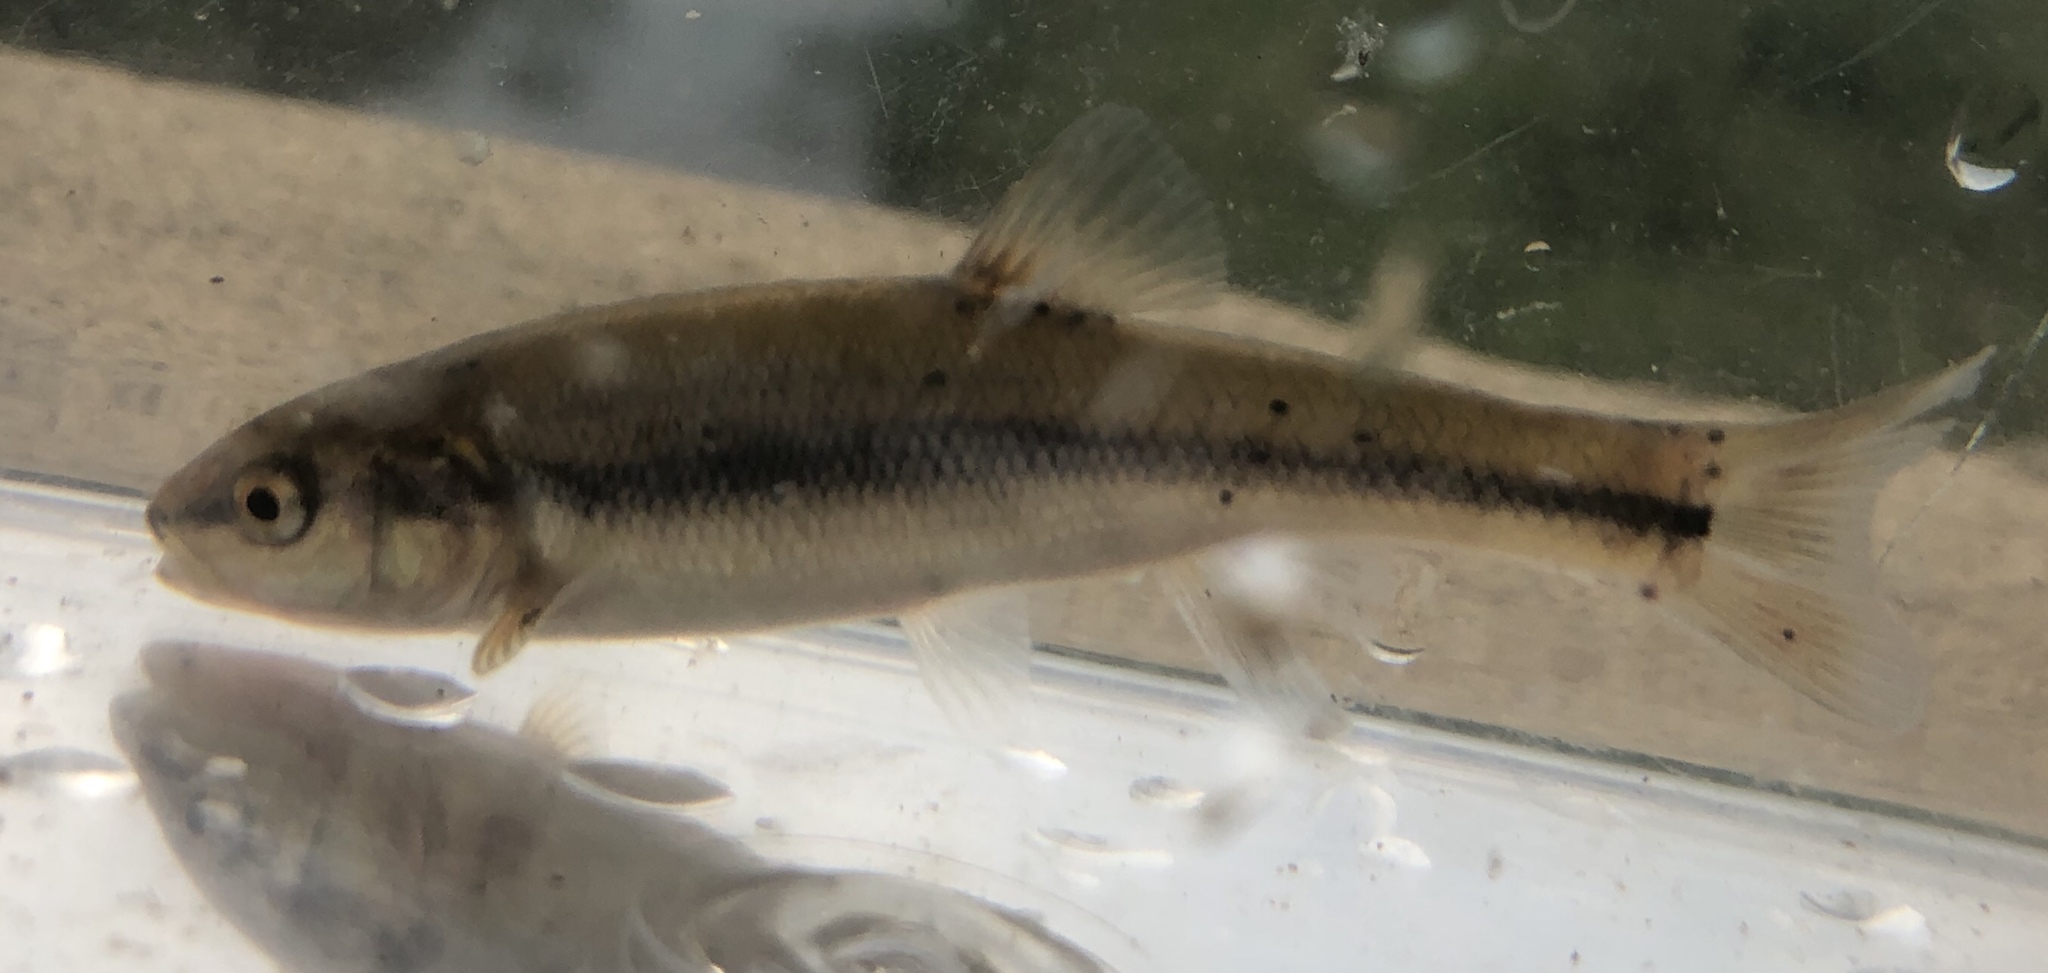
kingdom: Animalia
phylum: Chordata
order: Cypriniformes
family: Cyprinidae
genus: Semotilus
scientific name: Semotilus atromaculatus
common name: Creek chub
